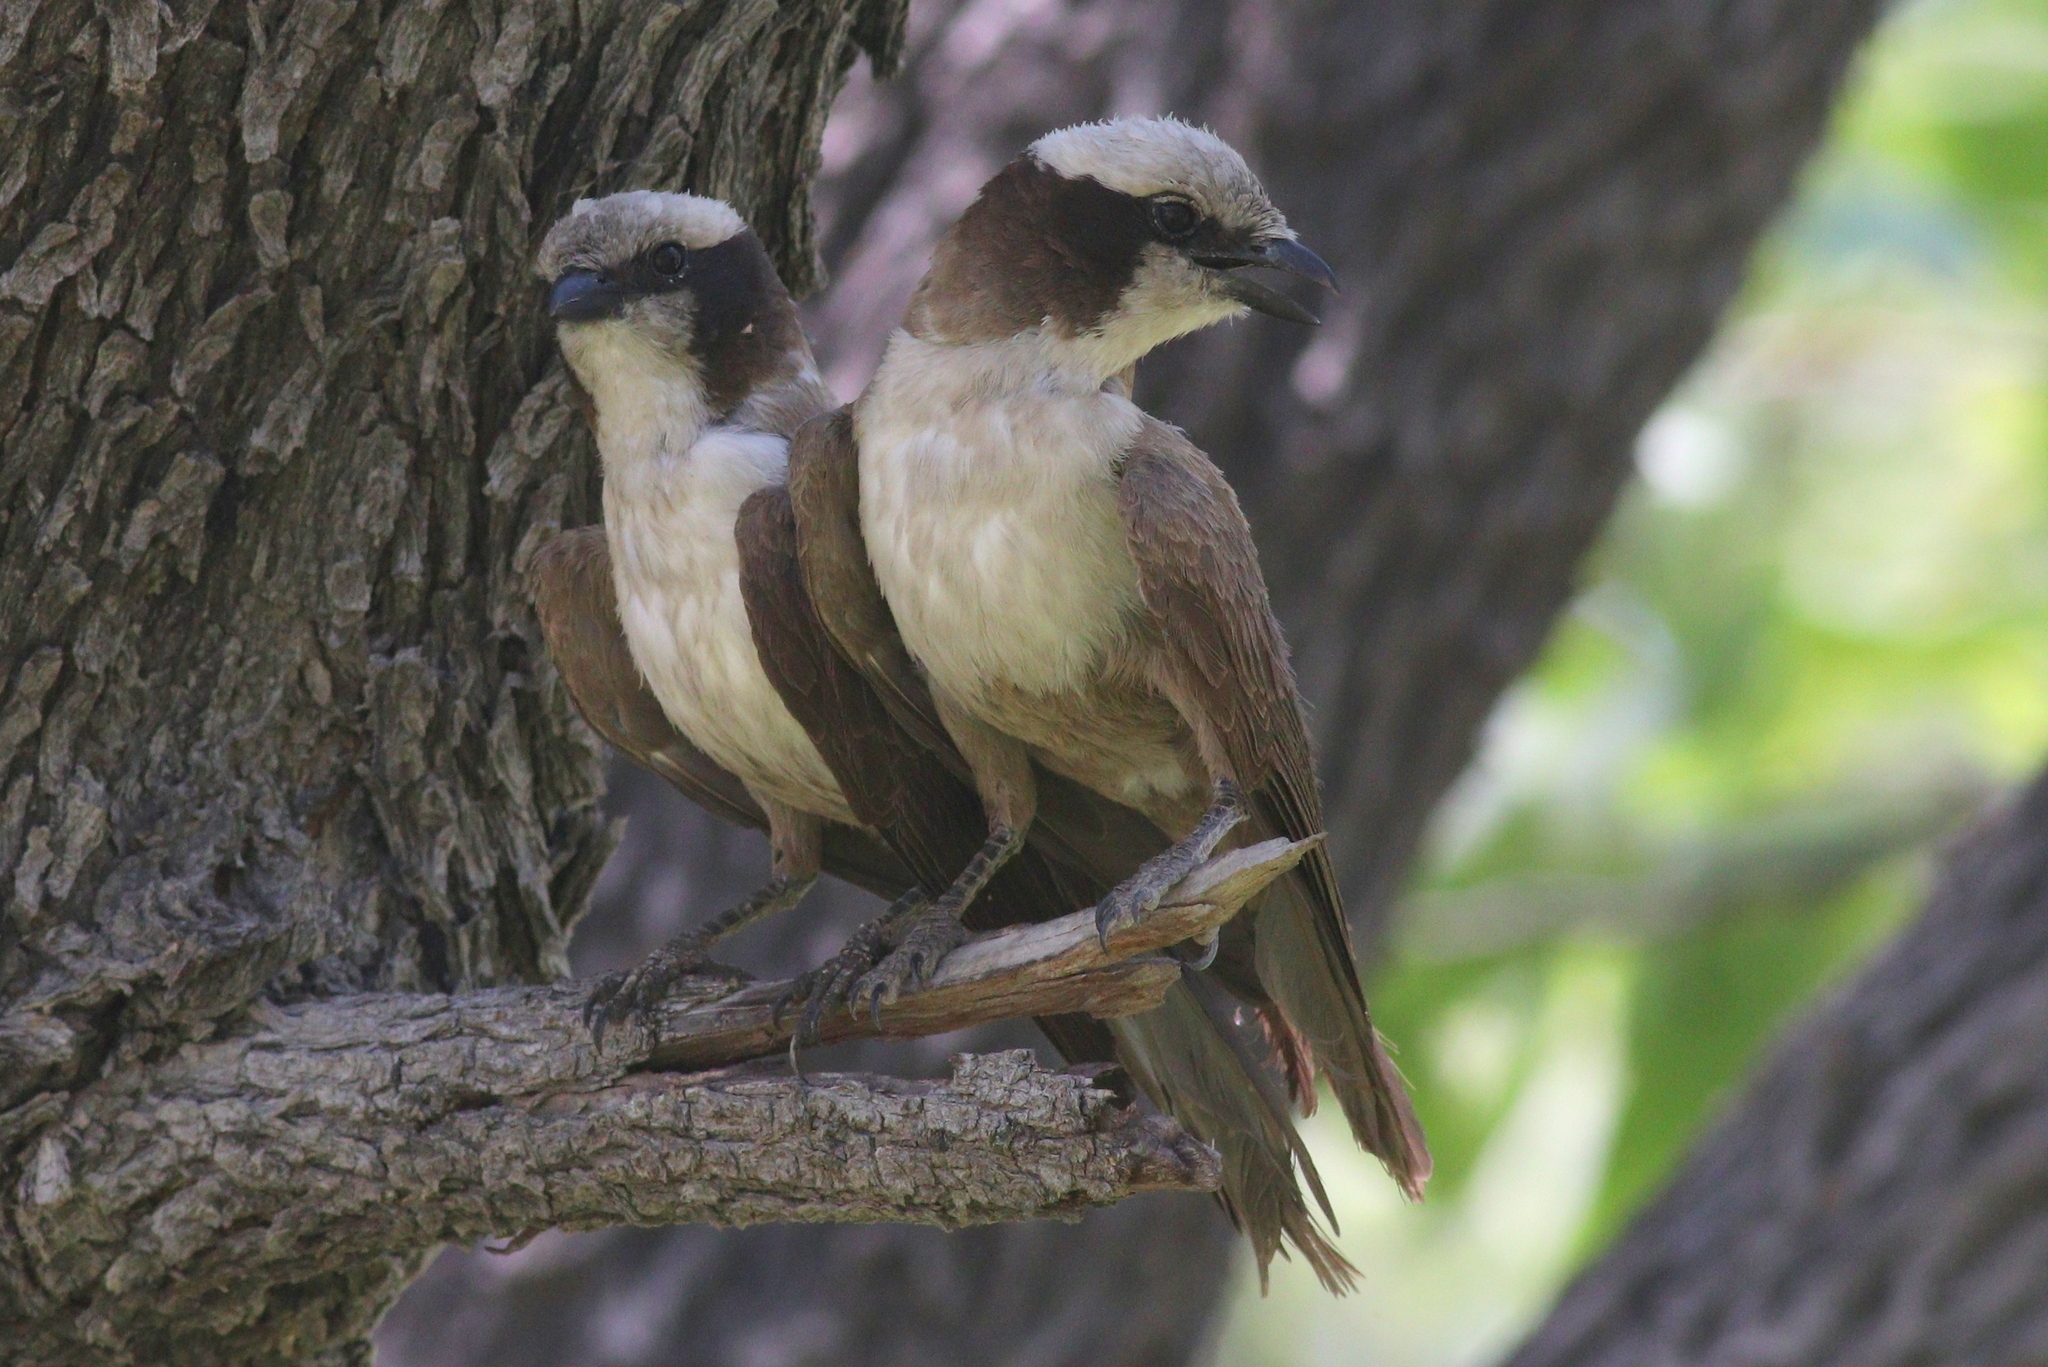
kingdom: Animalia
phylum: Chordata
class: Aves
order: Passeriformes
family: Laniidae
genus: Eurocephalus
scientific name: Eurocephalus anguitimens
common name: Southern white-crowned shrike
